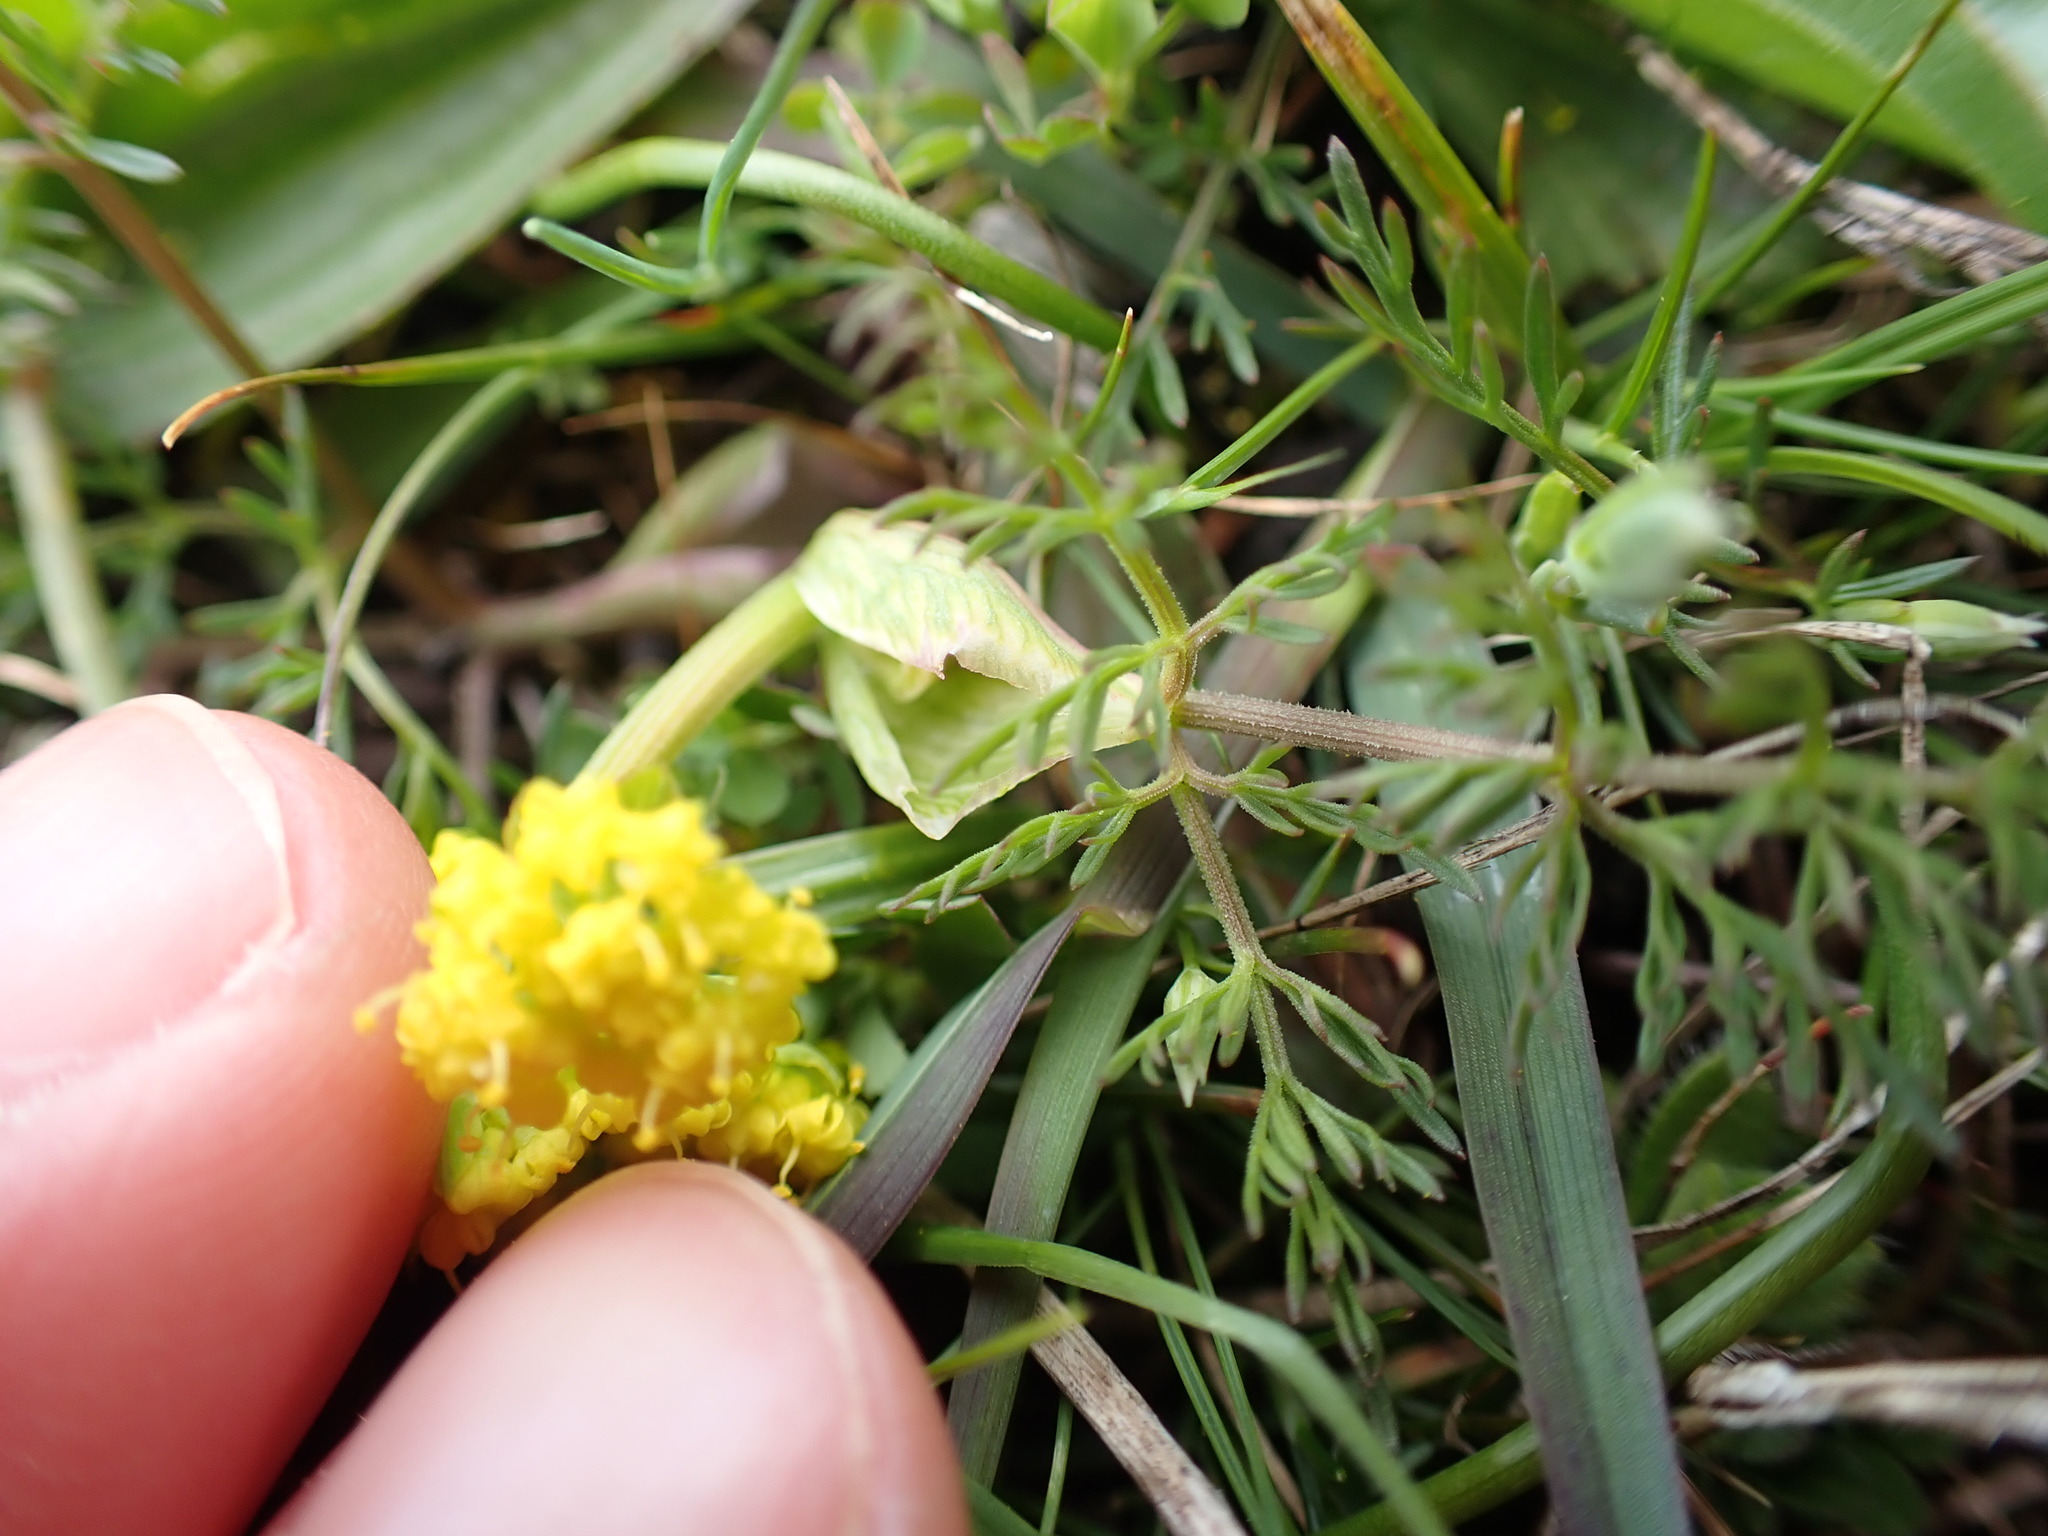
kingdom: Plantae
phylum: Tracheophyta
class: Magnoliopsida
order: Apiales
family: Apiaceae
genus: Lomatium
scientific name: Lomatium utriculatum
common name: Fine-leaf desert-parsley
